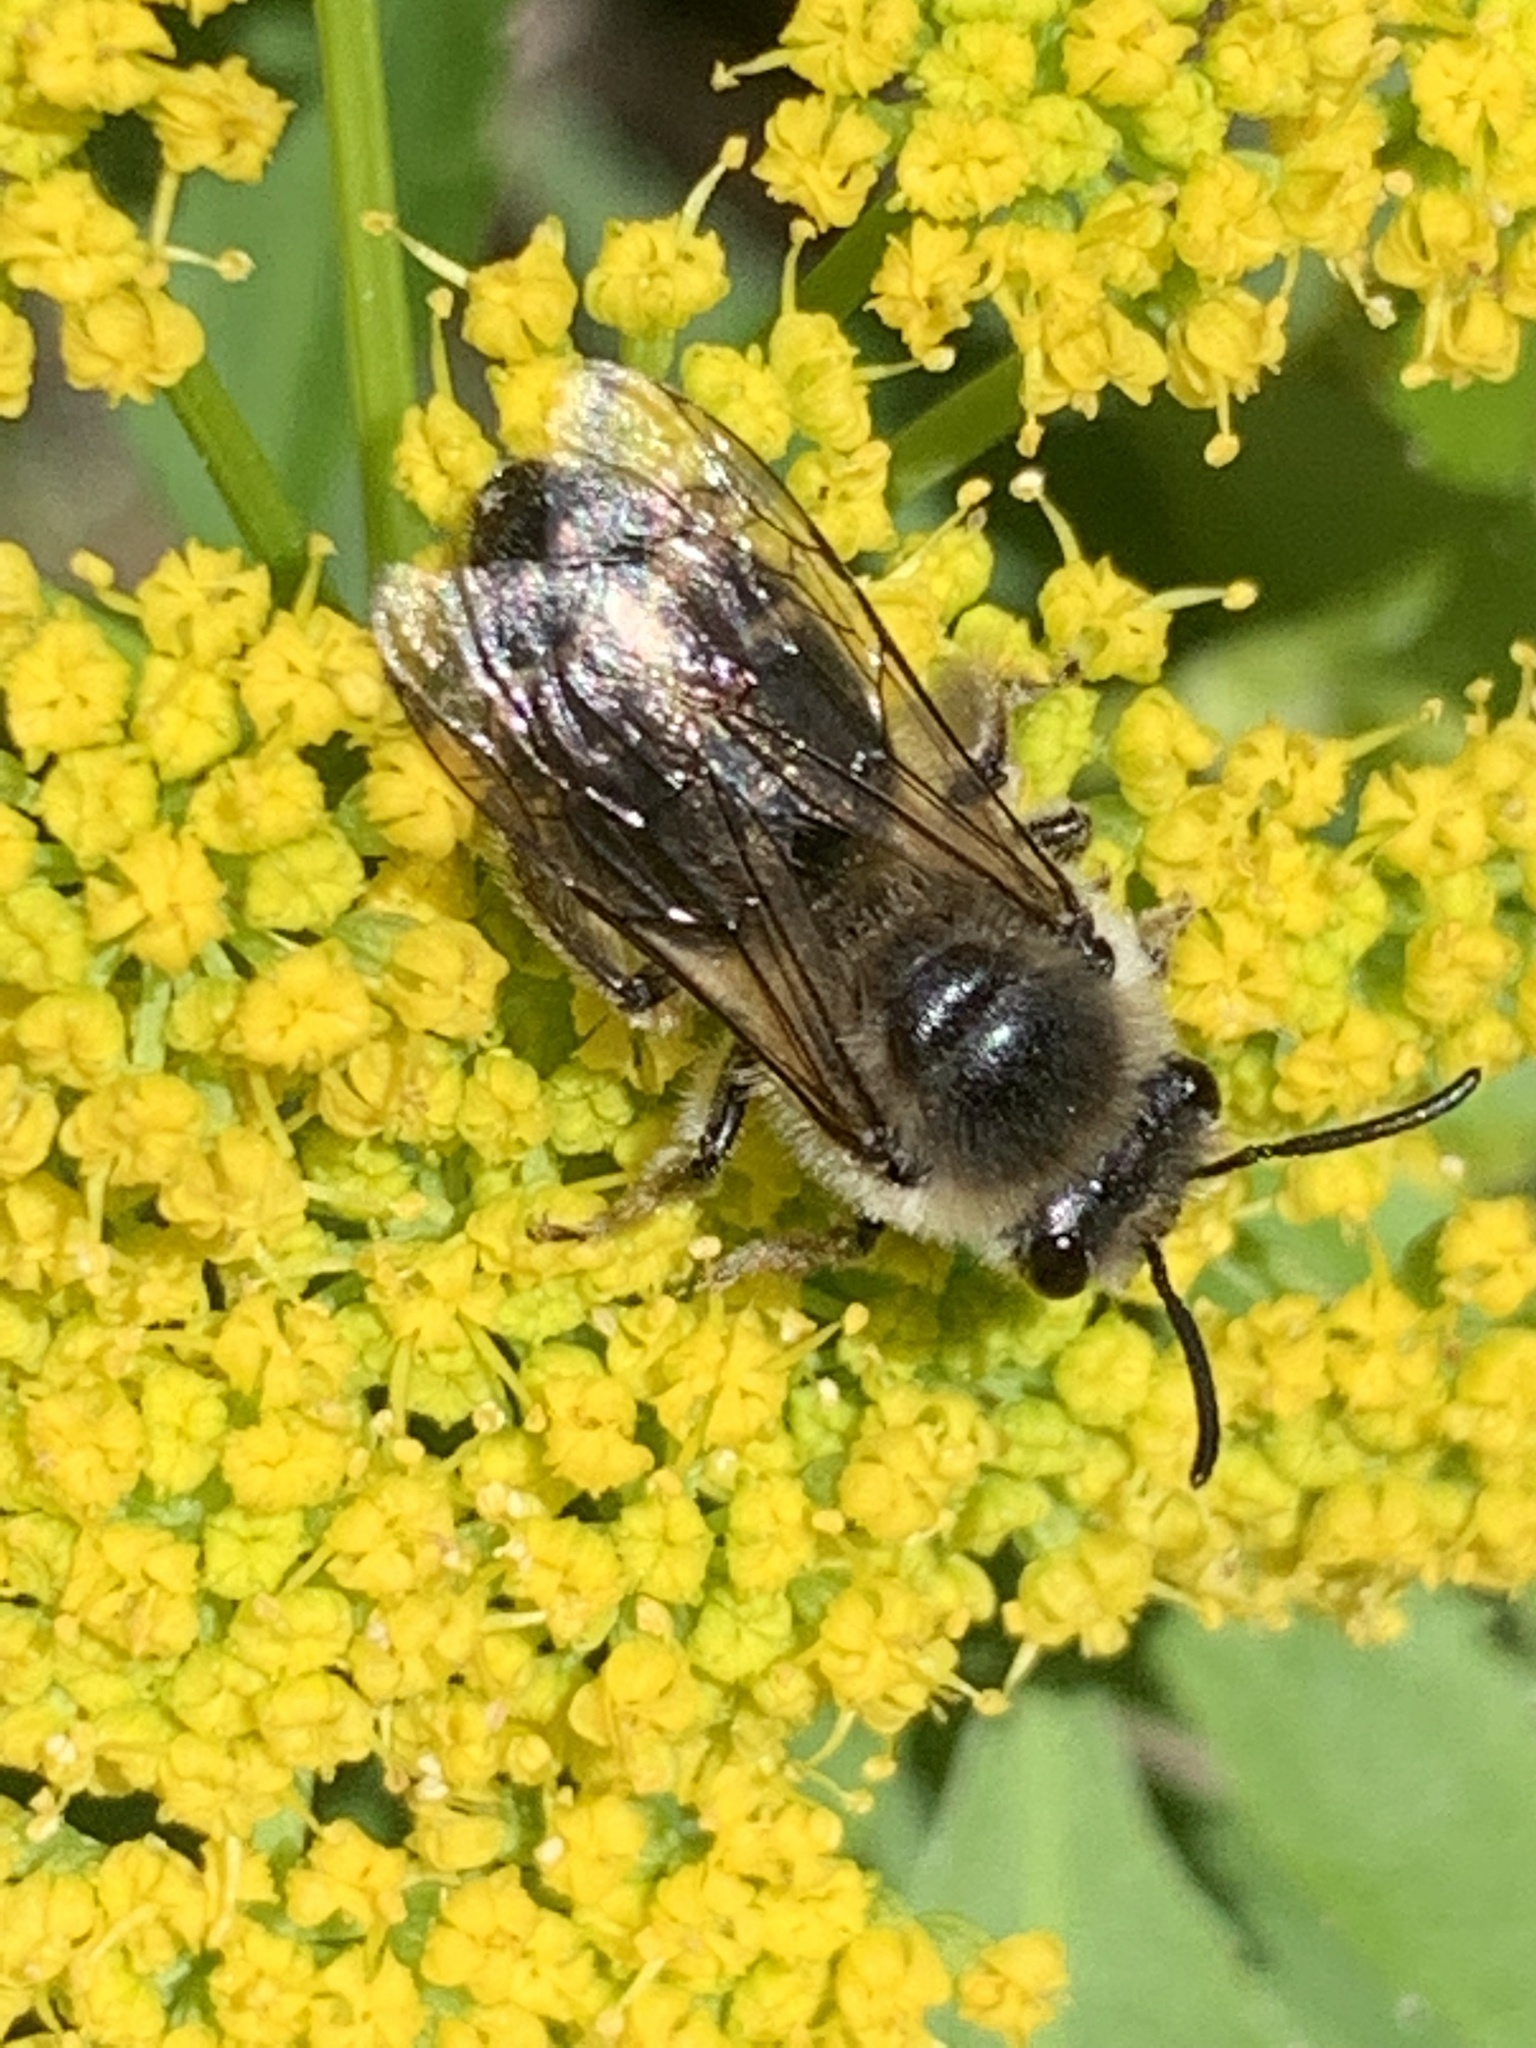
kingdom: Animalia
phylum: Arthropoda
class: Insecta
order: Hymenoptera
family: Colletidae
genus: Colletes
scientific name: Colletes inaequalis
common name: Unequal cellophane bee
